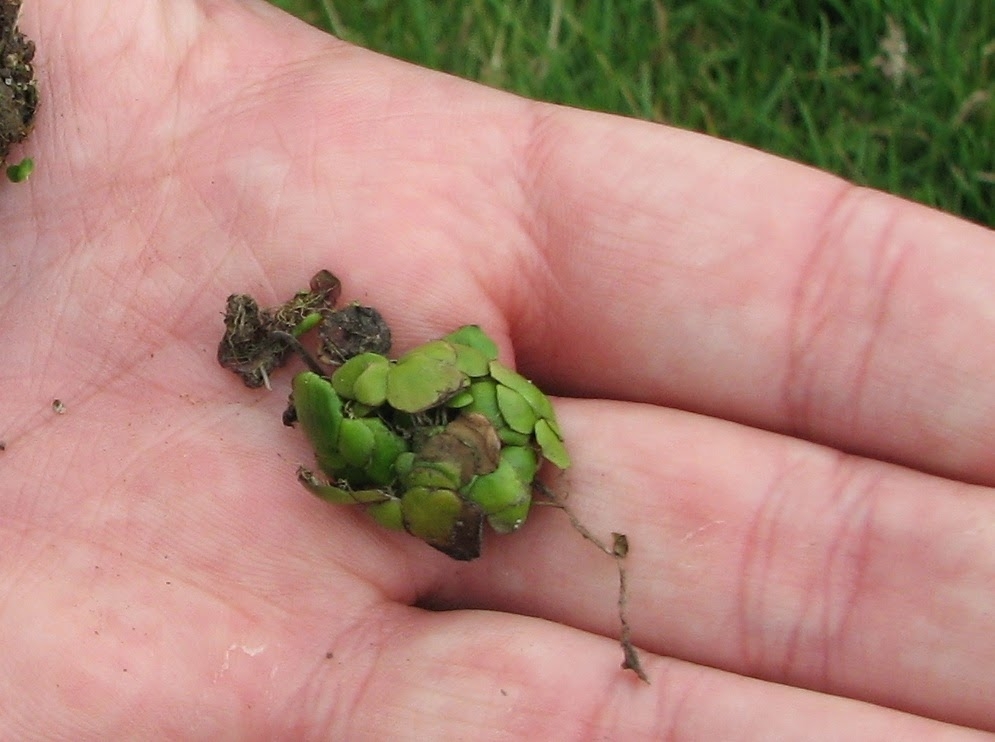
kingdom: Plantae
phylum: Tracheophyta
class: Liliopsida
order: Alismatales
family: Araceae
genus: Spirodela
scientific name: Spirodela polyrhiza
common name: Great duckweed
